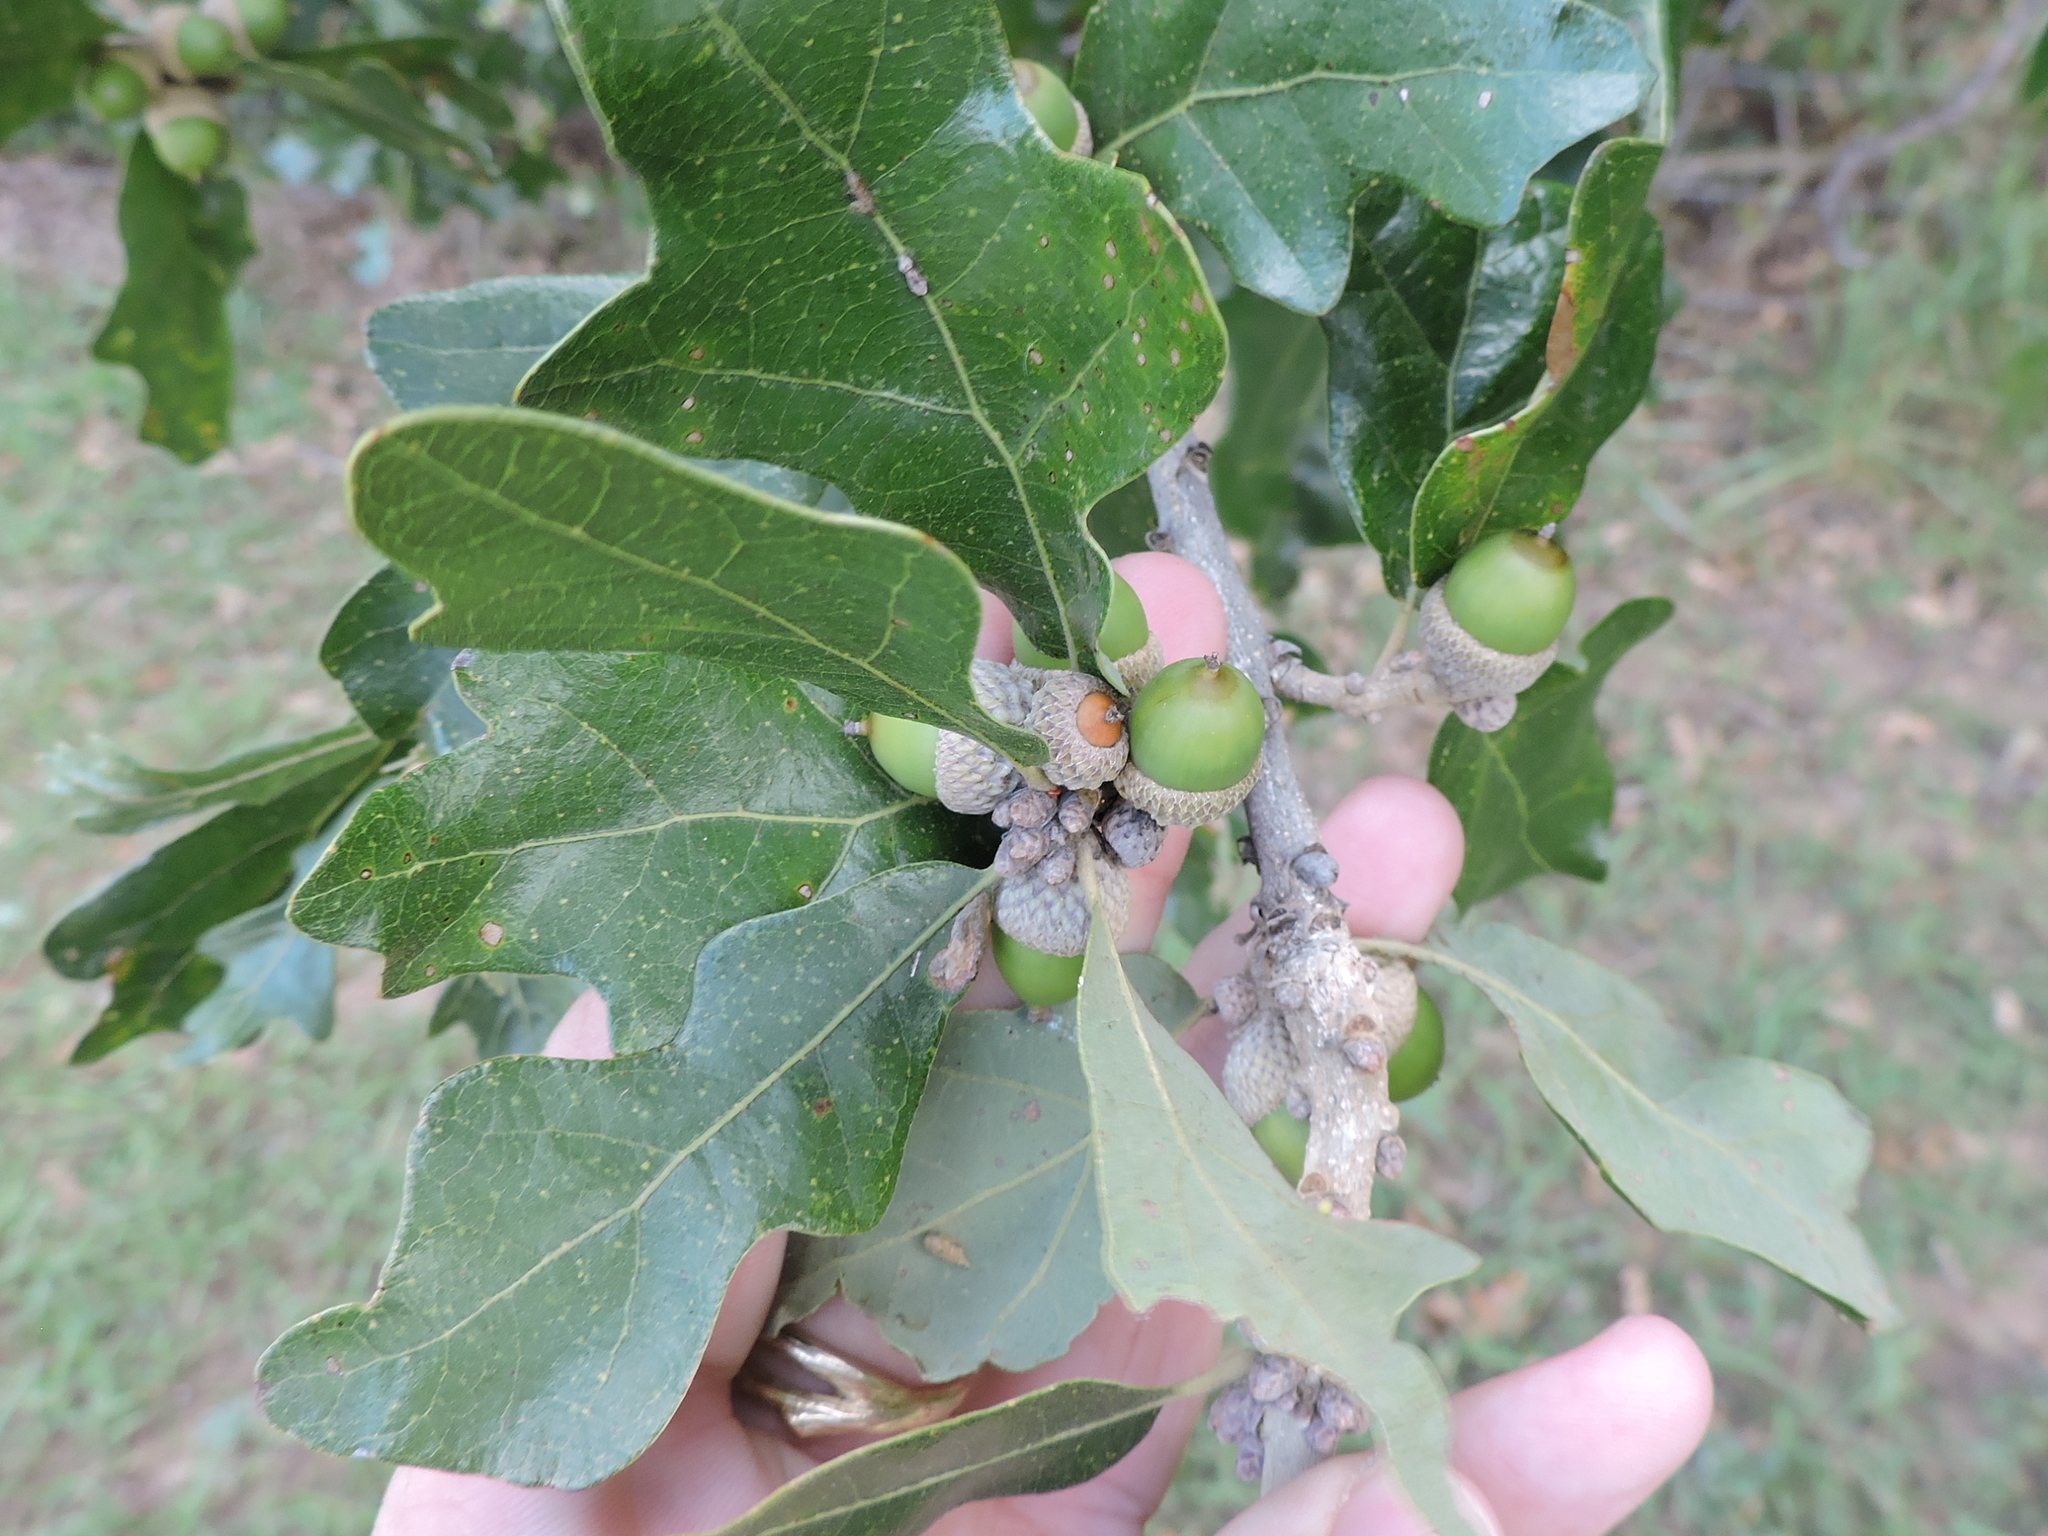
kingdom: Plantae
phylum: Tracheophyta
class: Magnoliopsida
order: Fagales
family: Fagaceae
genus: Quercus
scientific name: Quercus stellata
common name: Post oak
